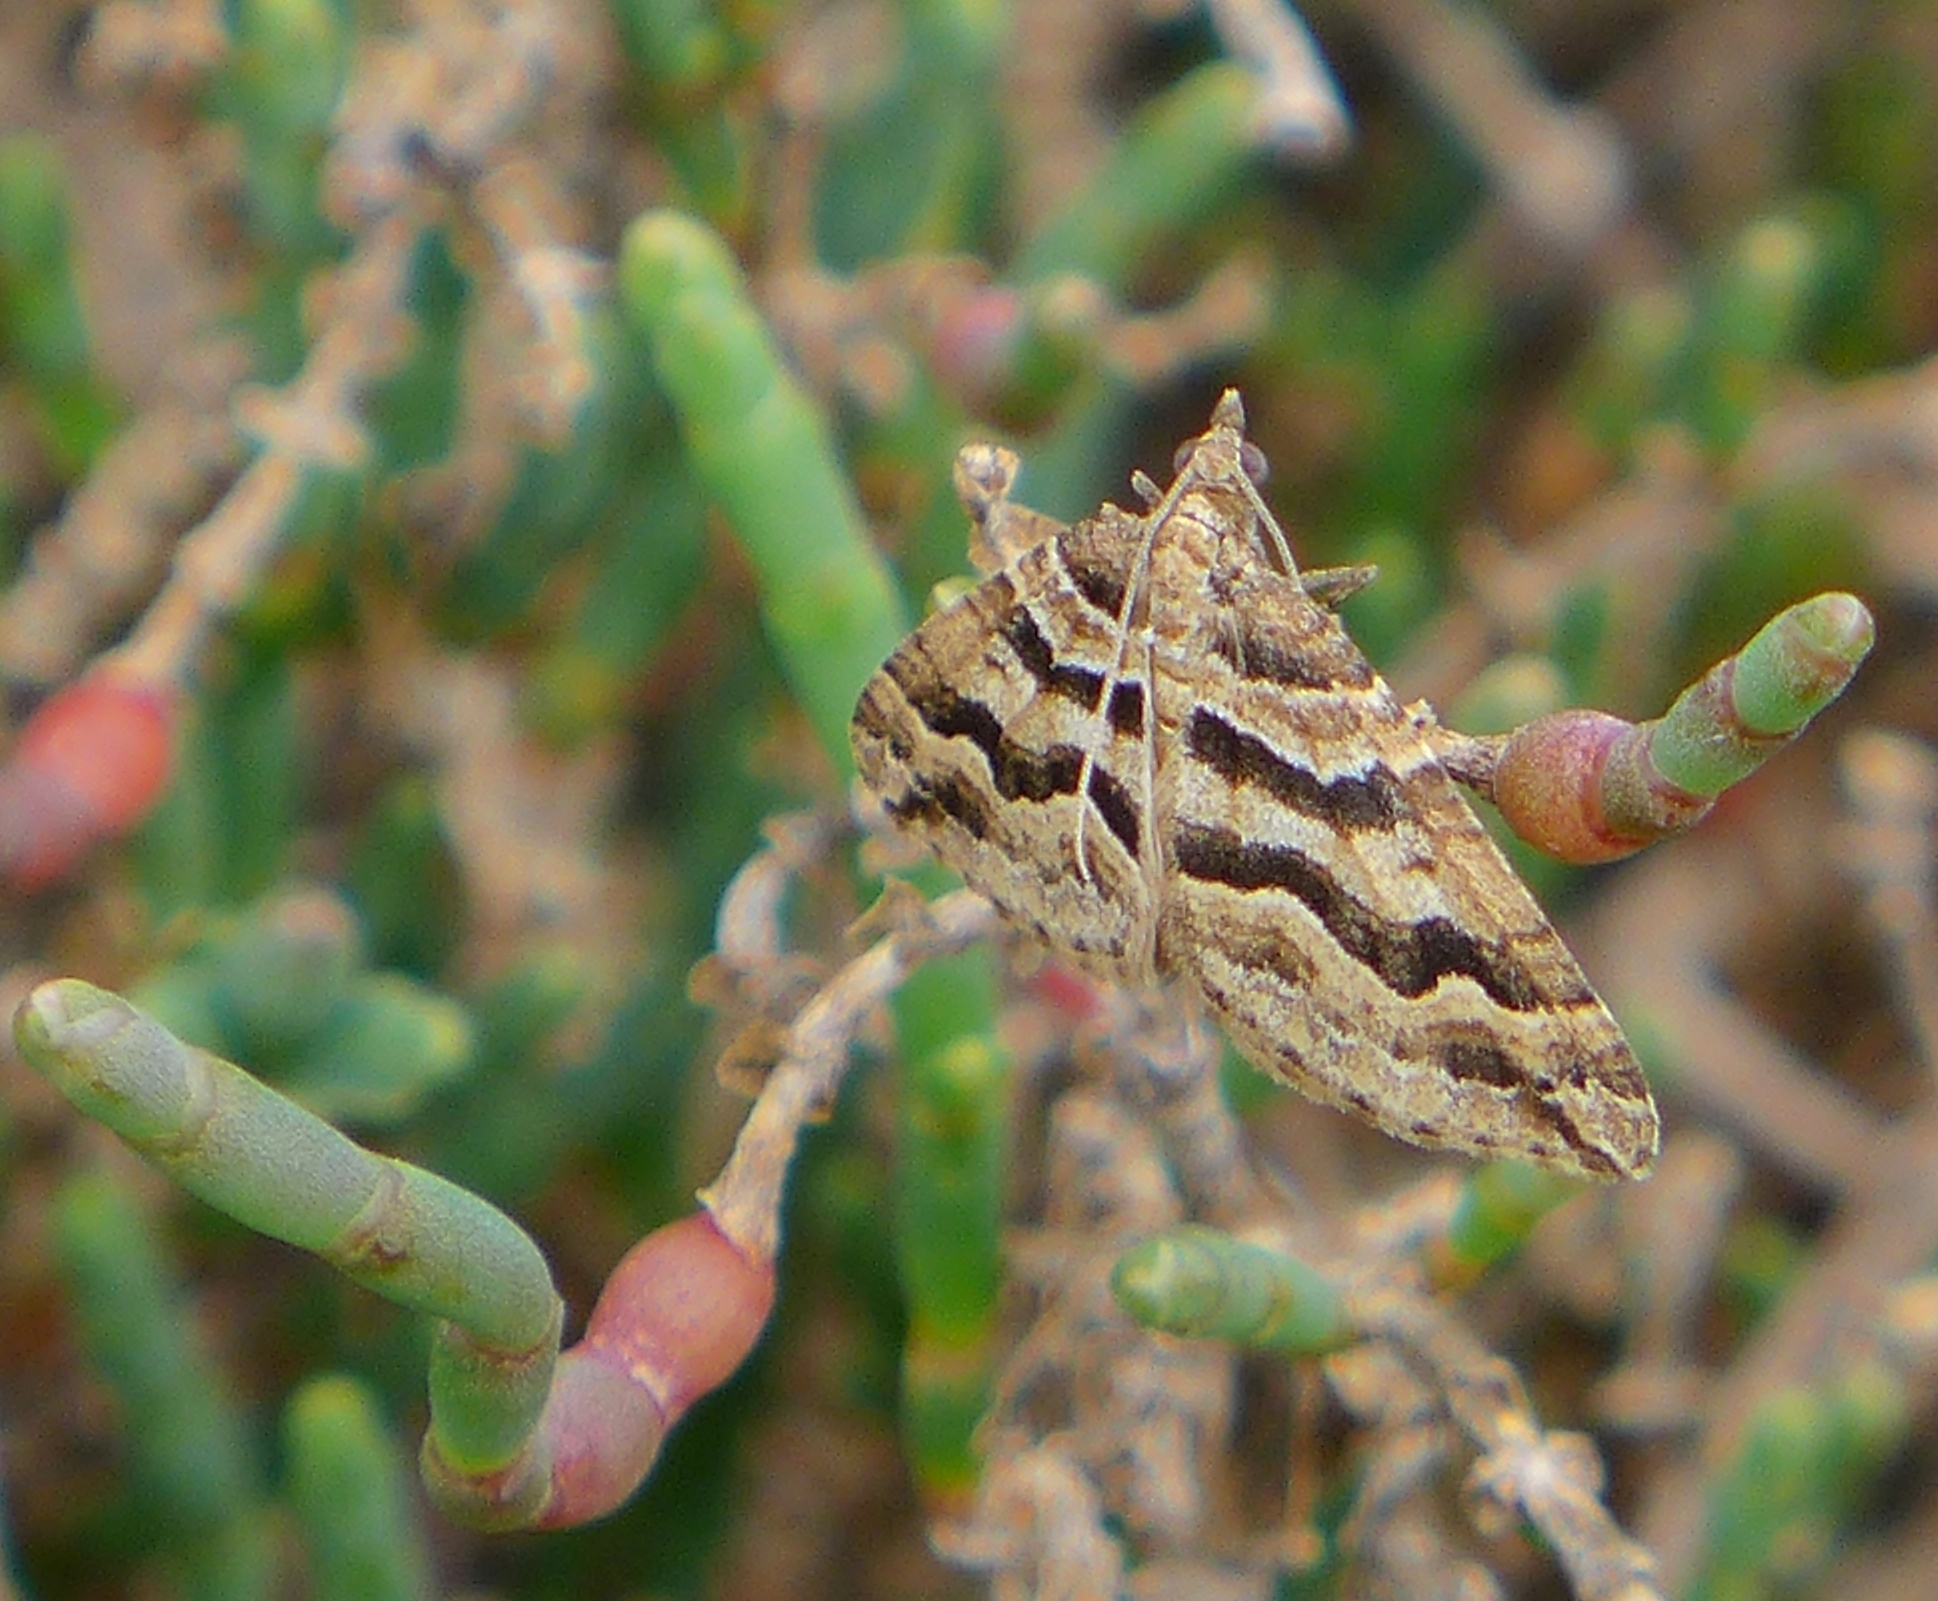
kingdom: Animalia
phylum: Arthropoda
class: Insecta
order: Lepidoptera
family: Geometridae
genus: Perizoma
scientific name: Perizoma epictata
